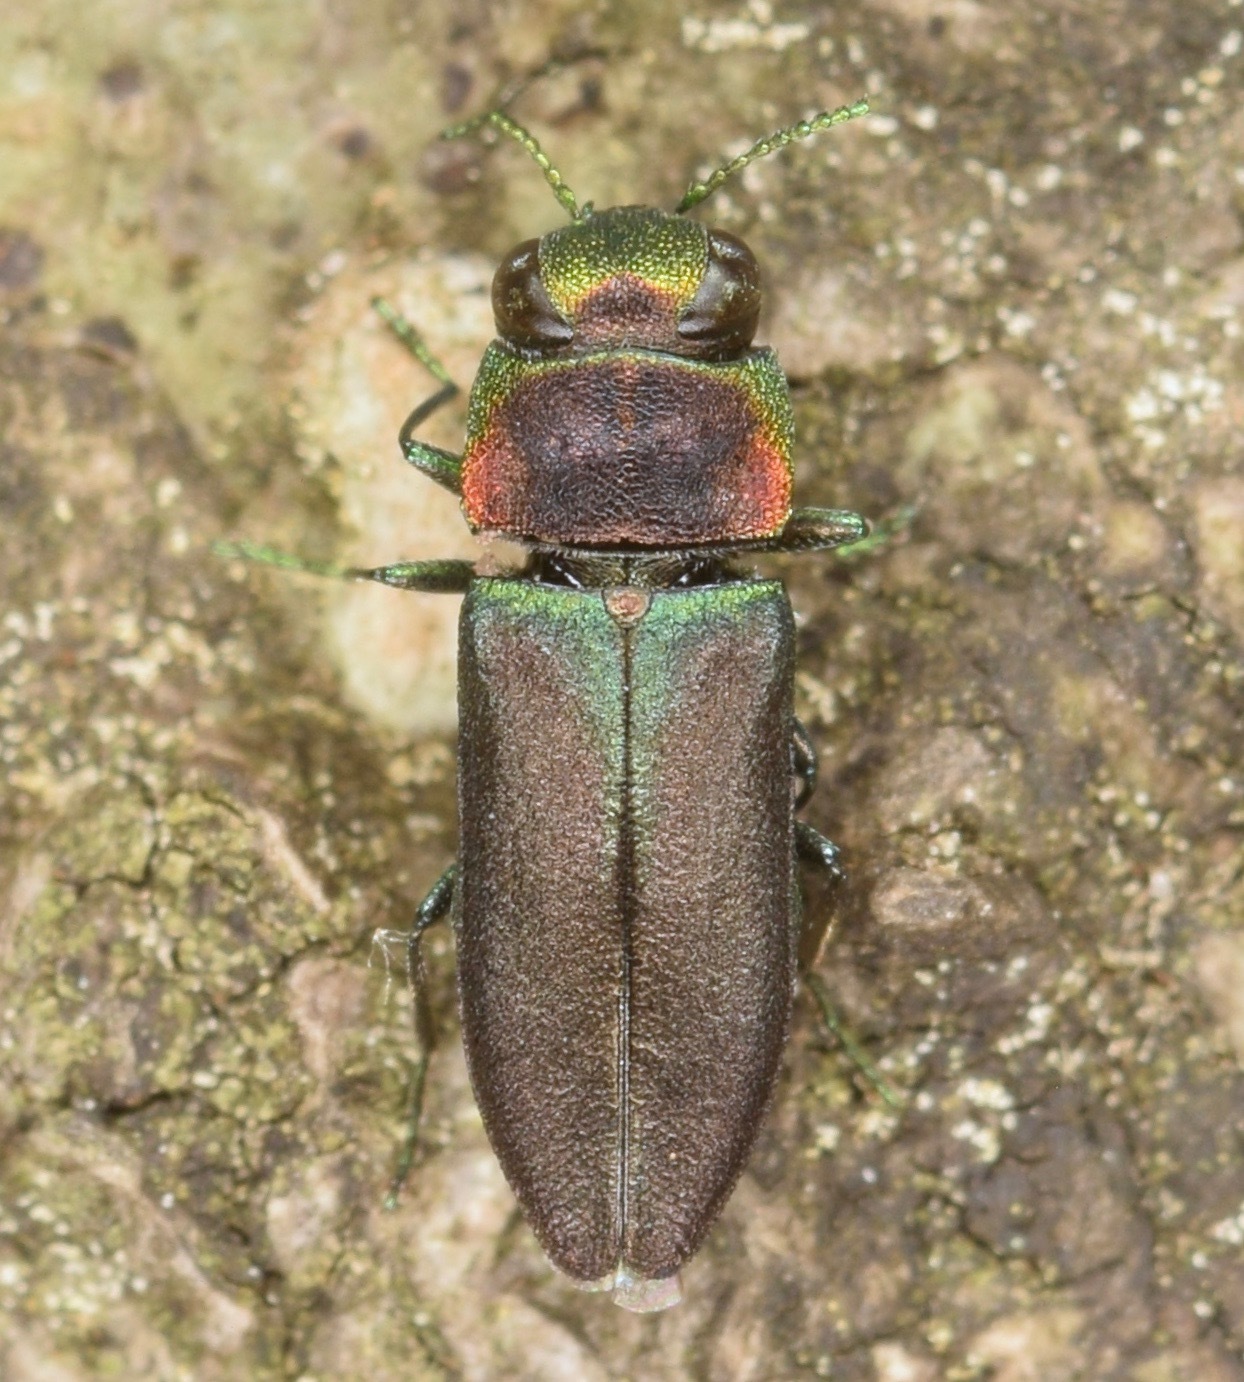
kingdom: Animalia
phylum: Arthropoda
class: Insecta
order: Coleoptera
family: Buprestidae
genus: Anthaxia
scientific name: Anthaxia viridifrons
